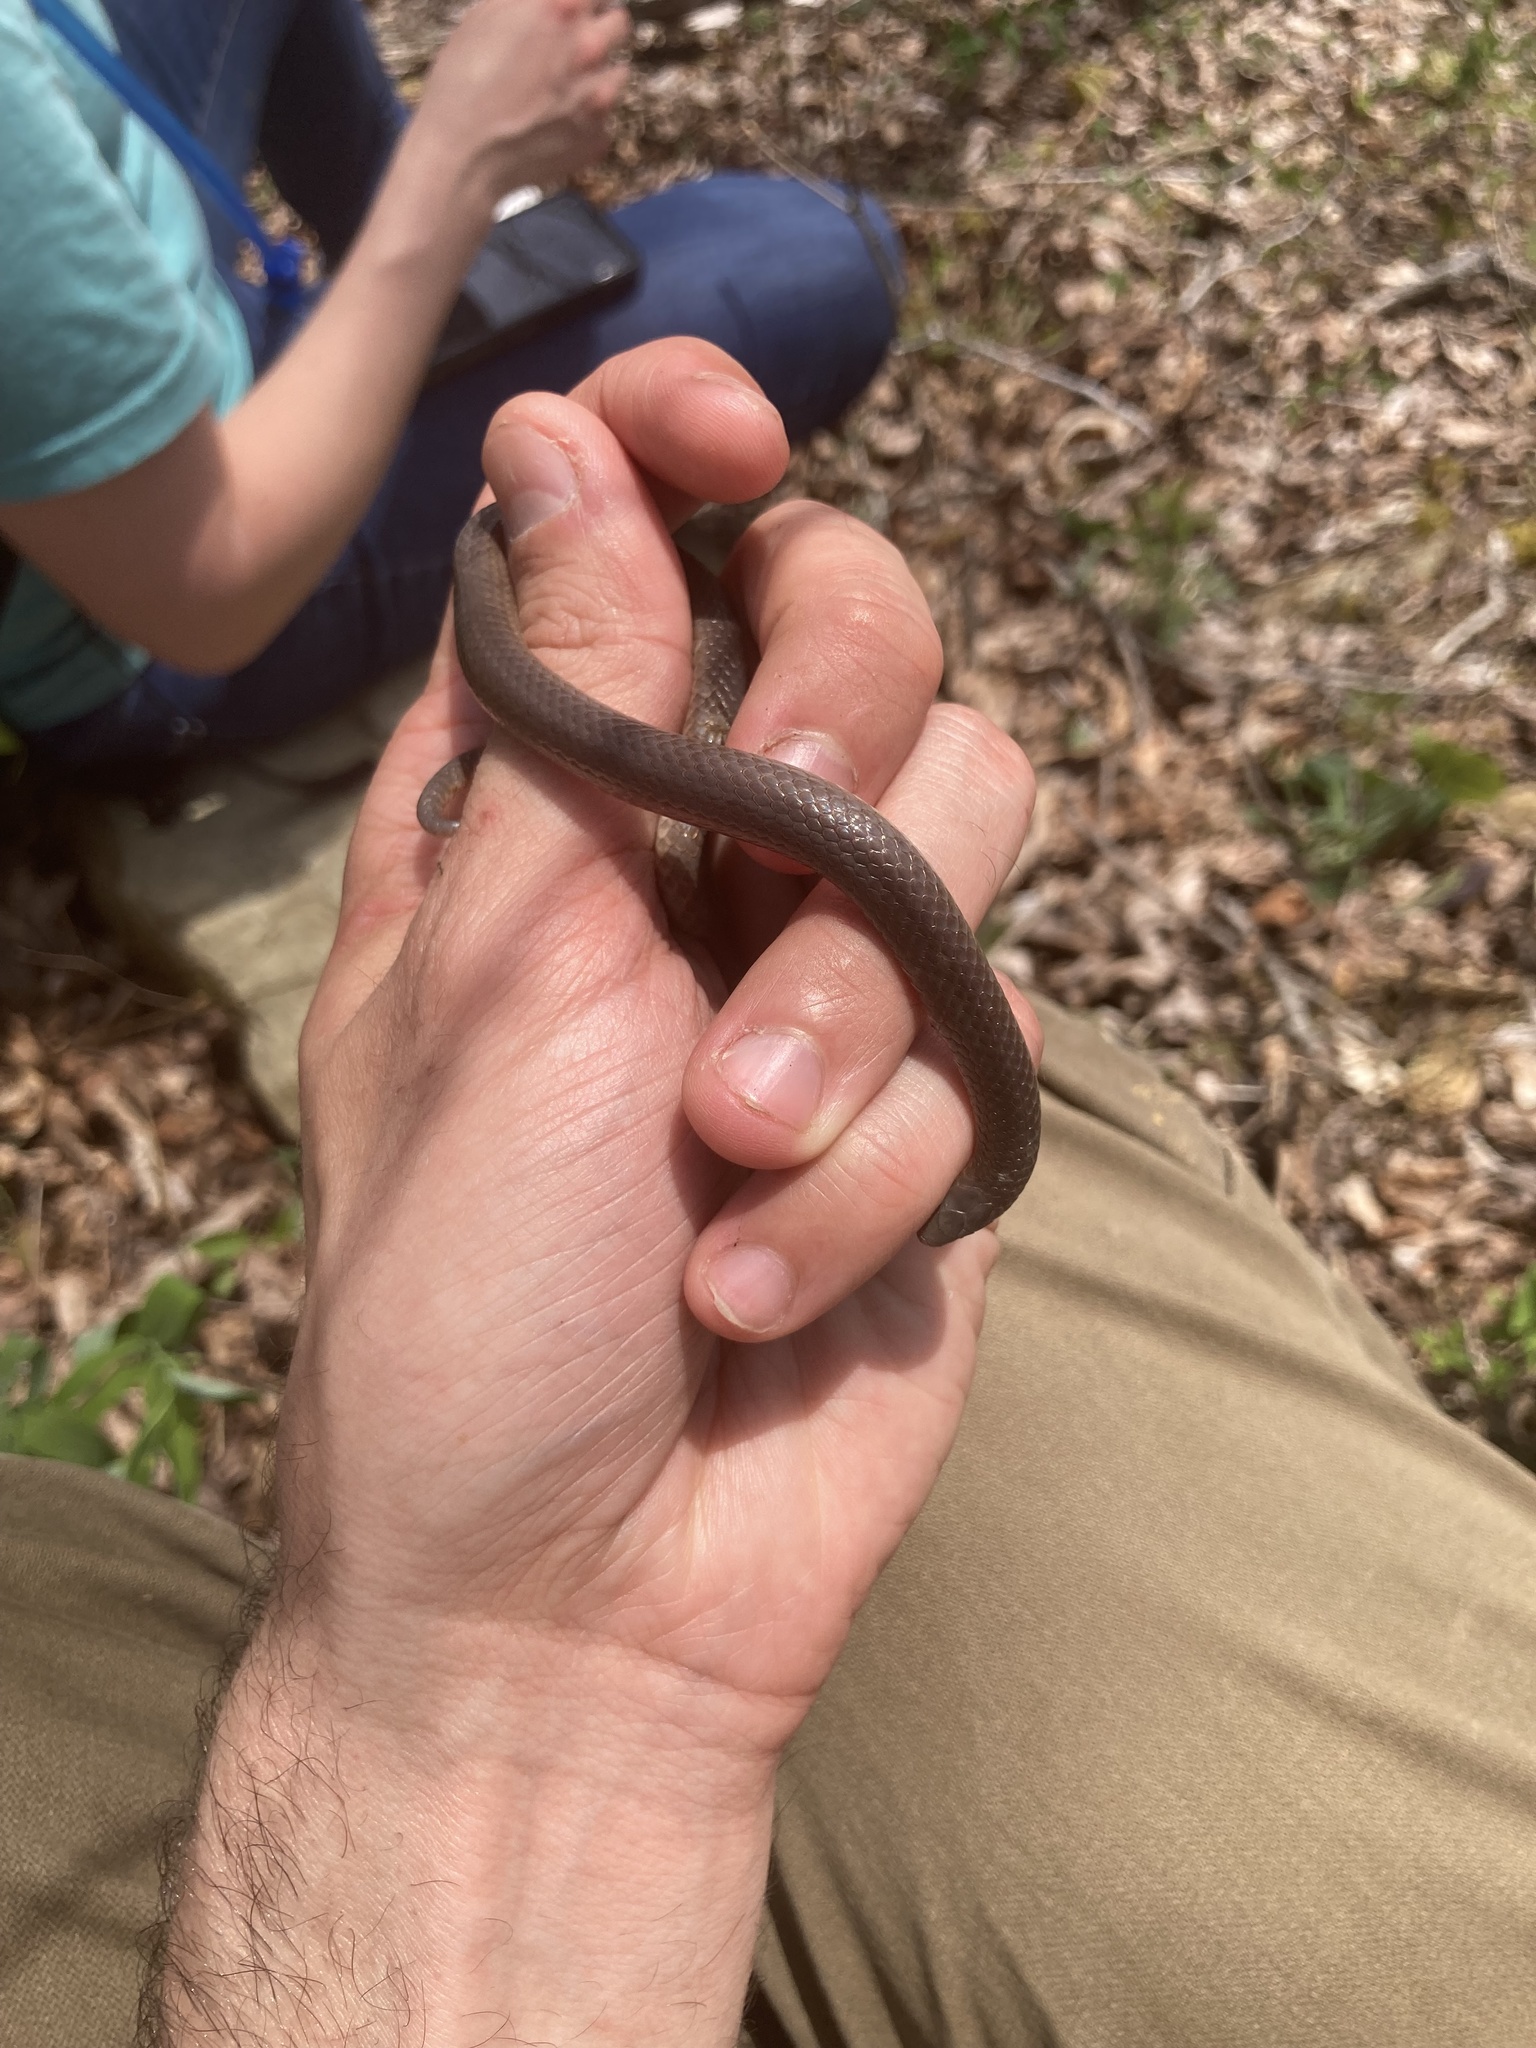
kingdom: Animalia
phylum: Chordata
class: Squamata
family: Colubridae
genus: Carphophis
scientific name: Carphophis amoenus
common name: Eastern worm snake
